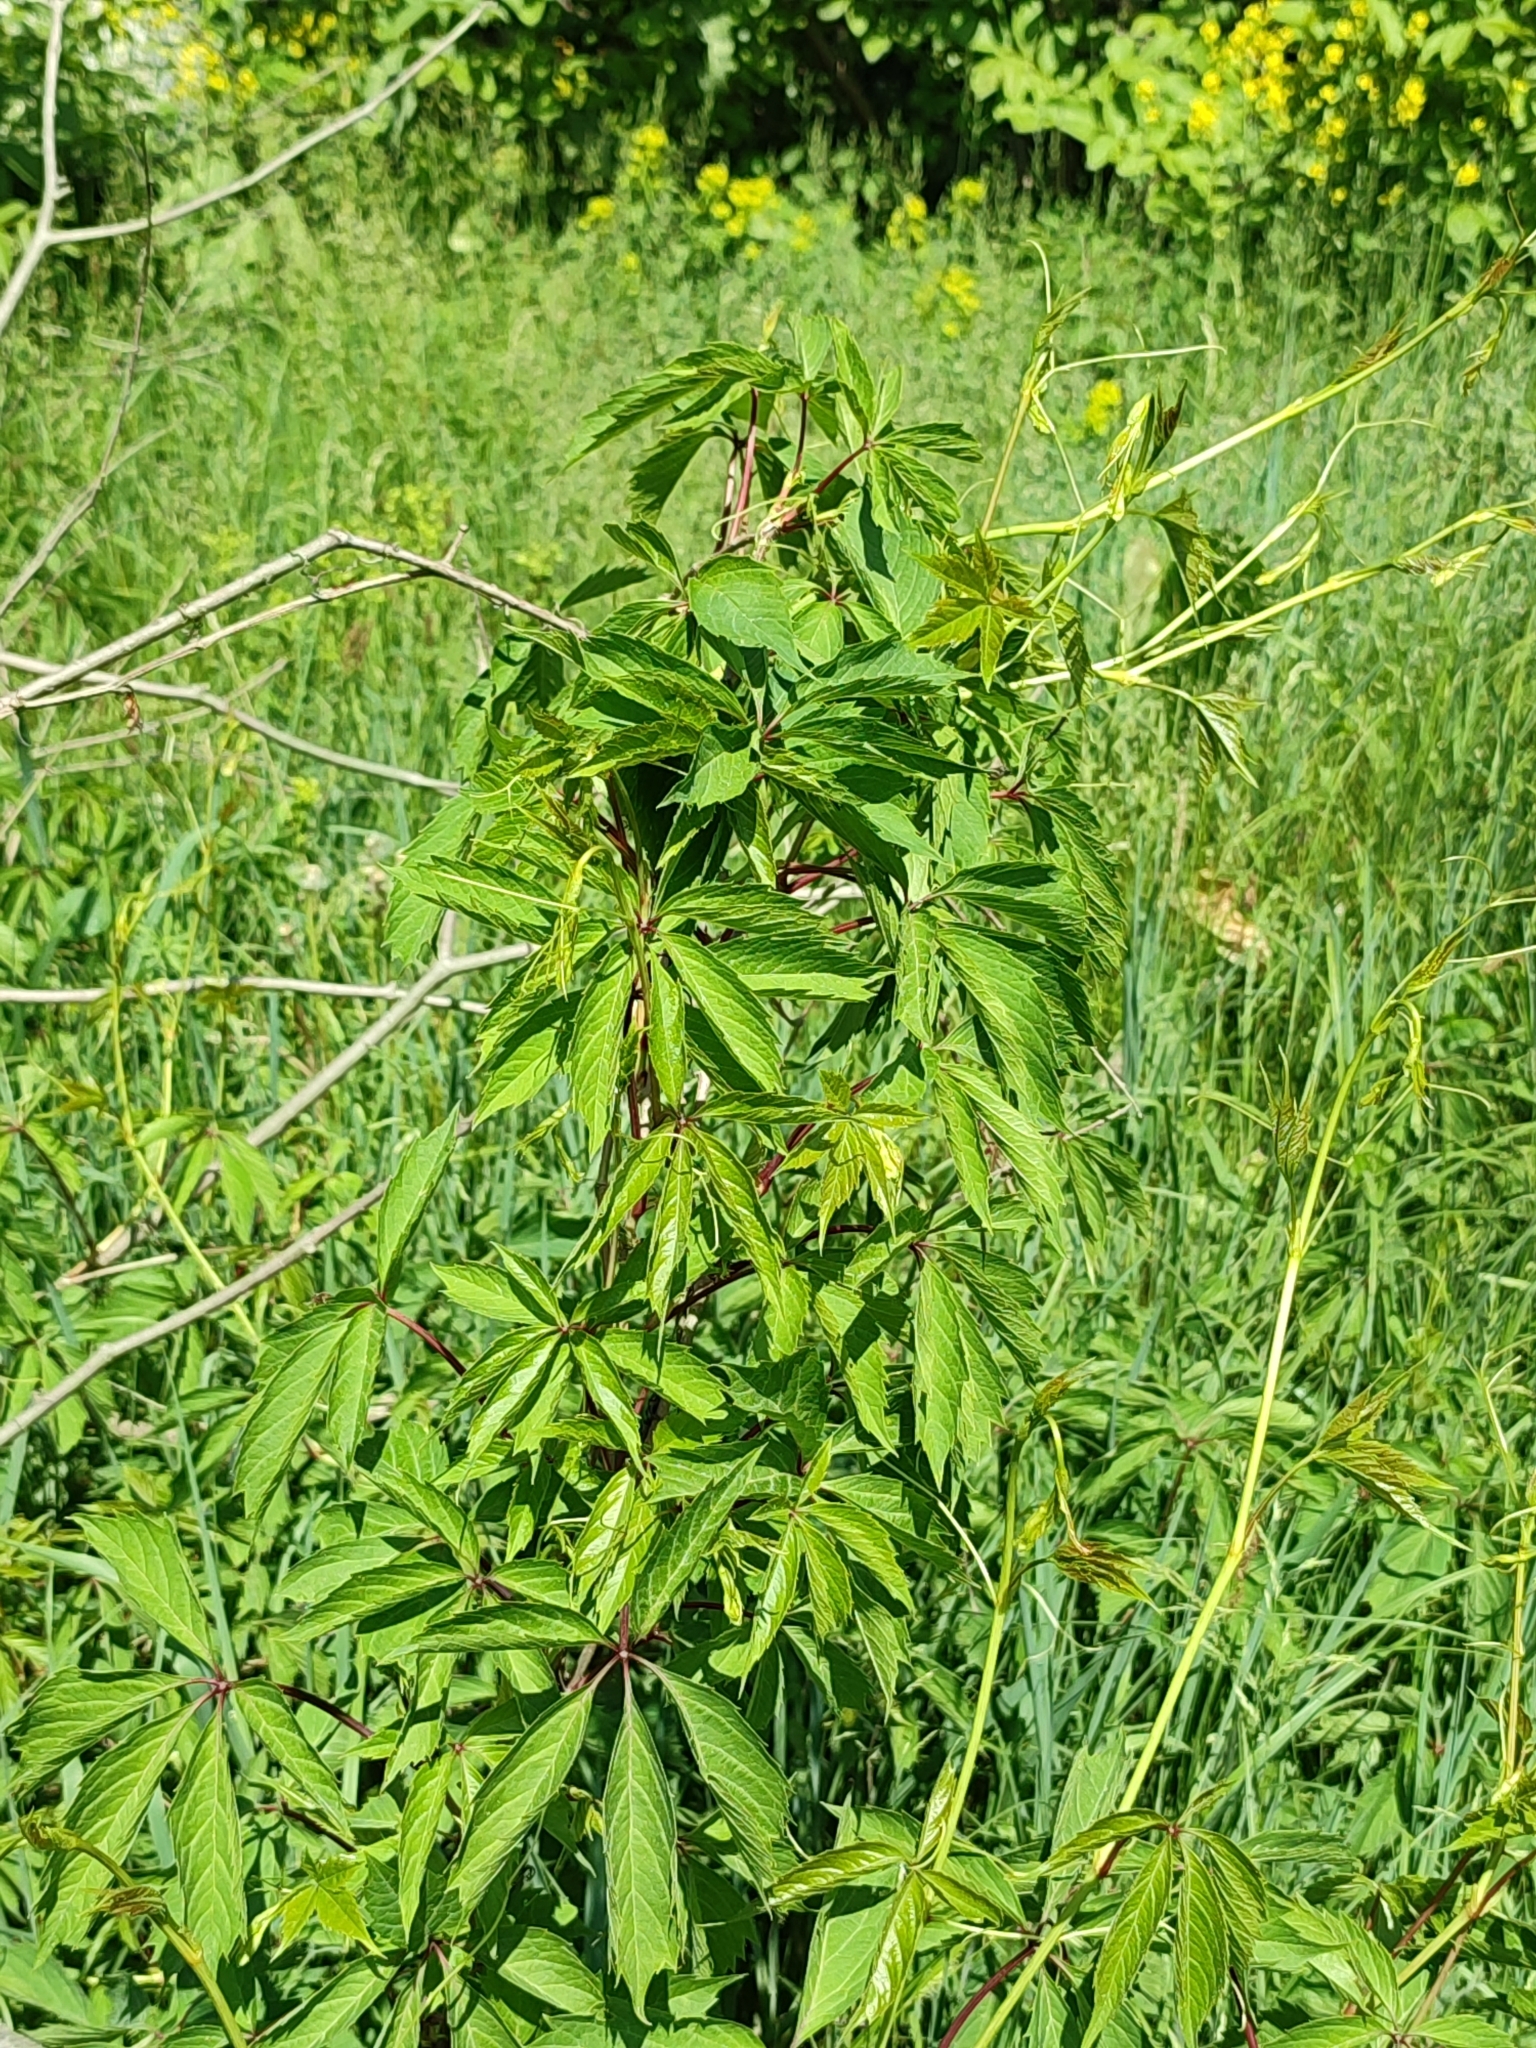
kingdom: Plantae
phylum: Tracheophyta
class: Magnoliopsida
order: Vitales
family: Vitaceae
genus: Parthenocissus
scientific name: Parthenocissus inserta
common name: False virginia-creeper
